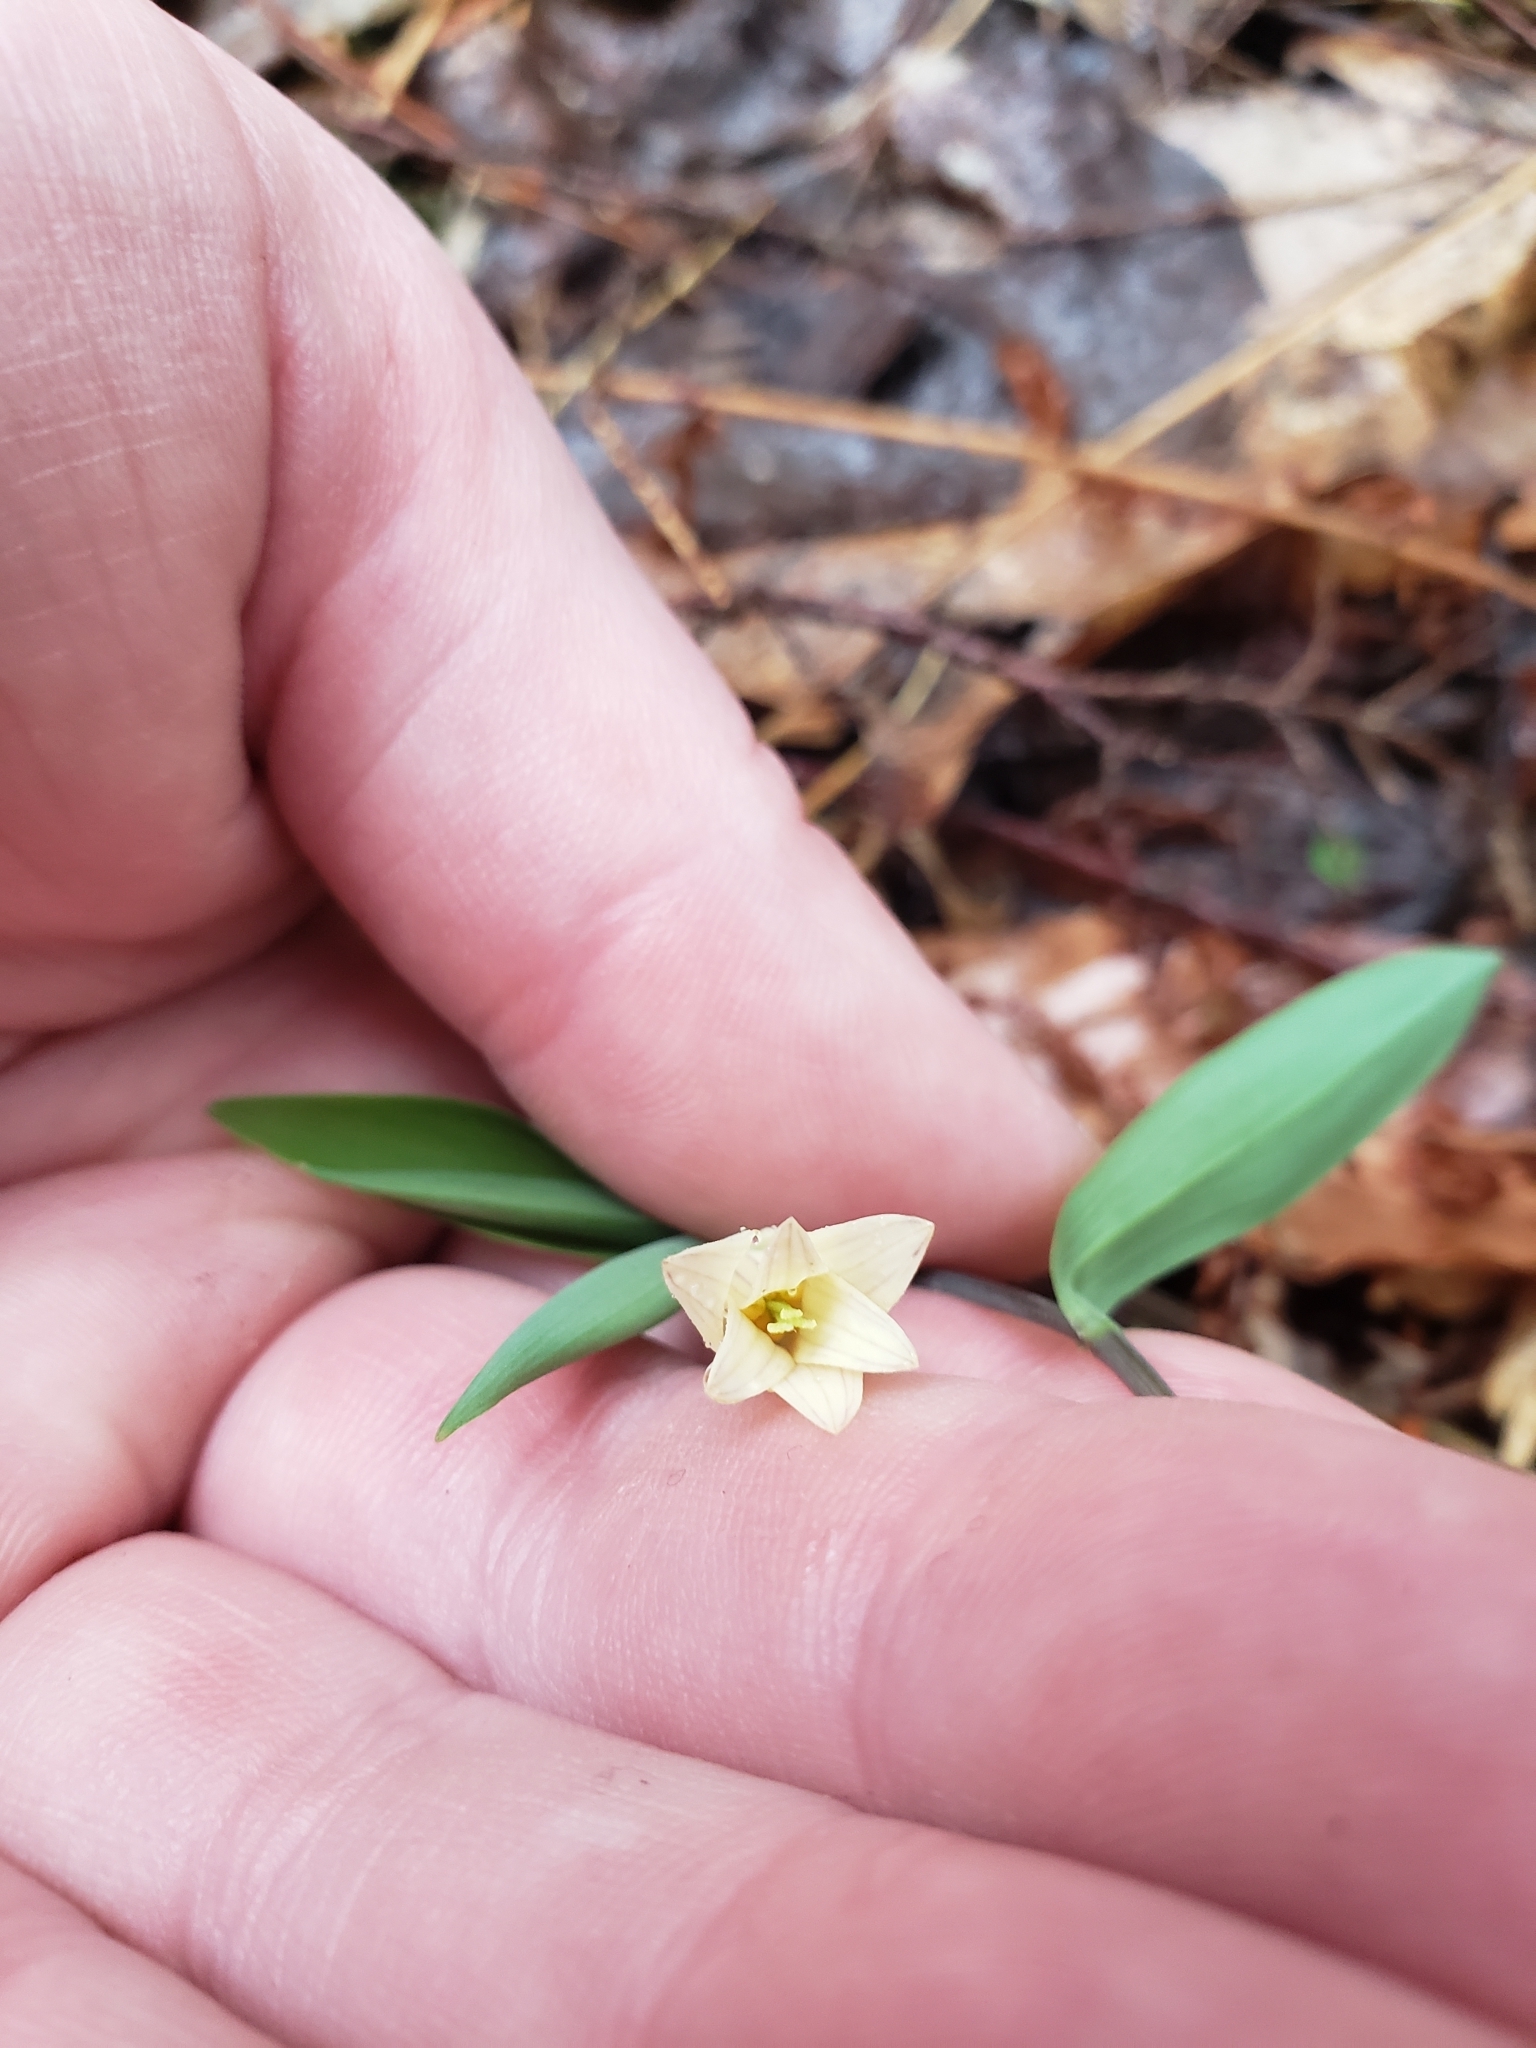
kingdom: Plantae
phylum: Tracheophyta
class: Liliopsida
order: Liliales
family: Colchicaceae
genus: Uvularia
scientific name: Uvularia sessilifolia
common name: Straw-lily
